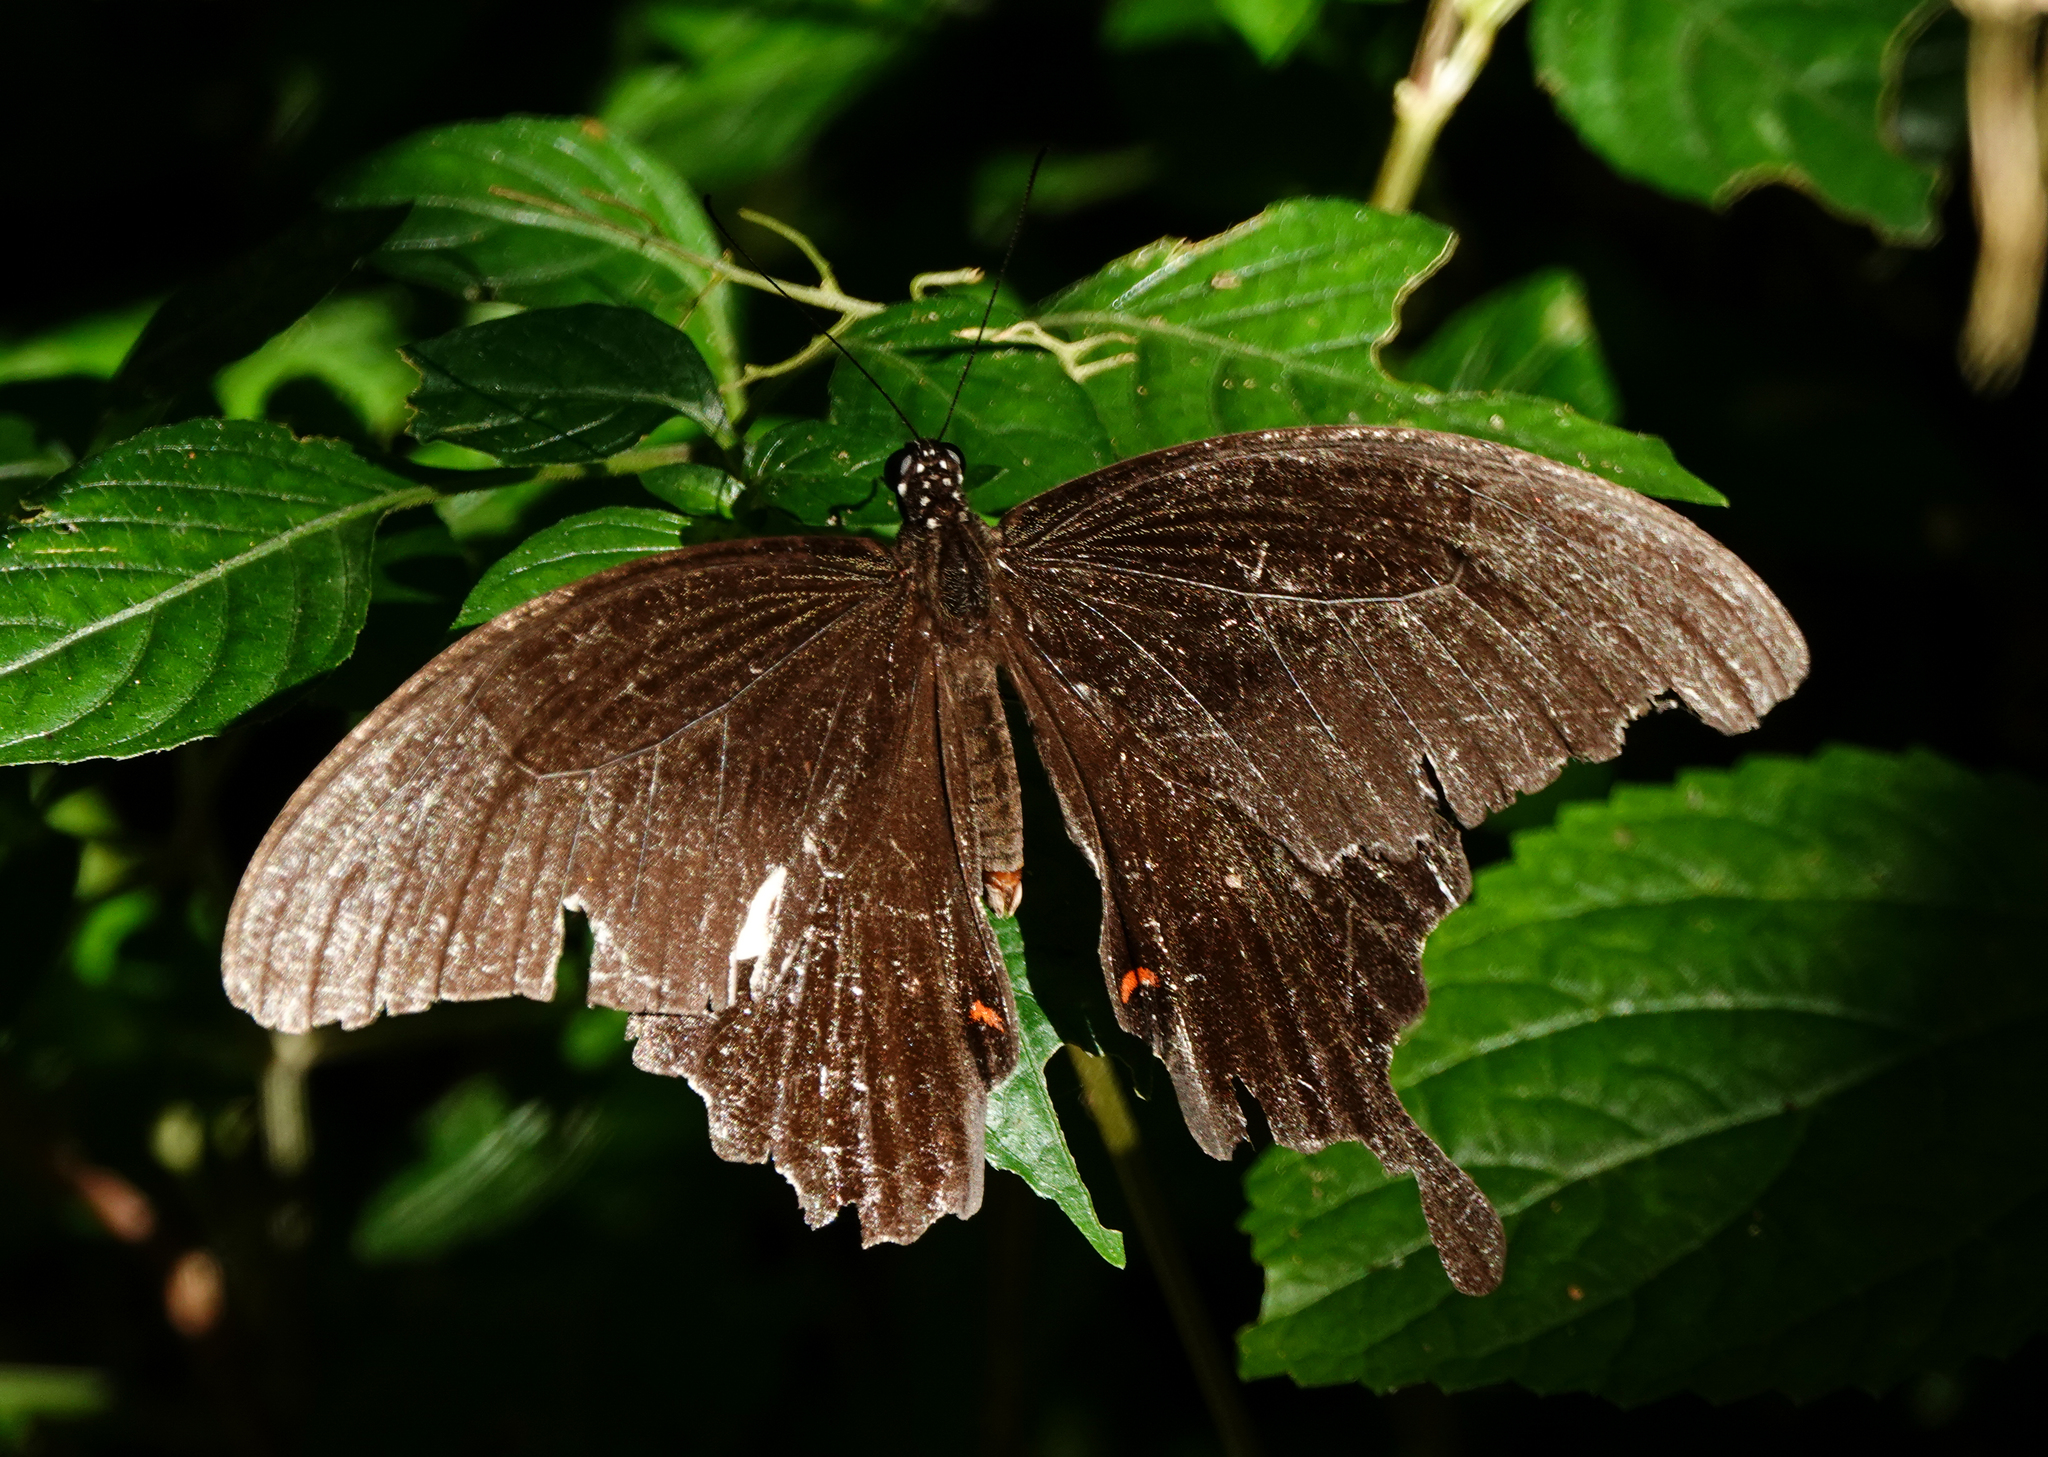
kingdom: Animalia
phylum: Arthropoda
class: Insecta
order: Lepidoptera
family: Papilionidae
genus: Papilio
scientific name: Papilio helenus
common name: Red helen
